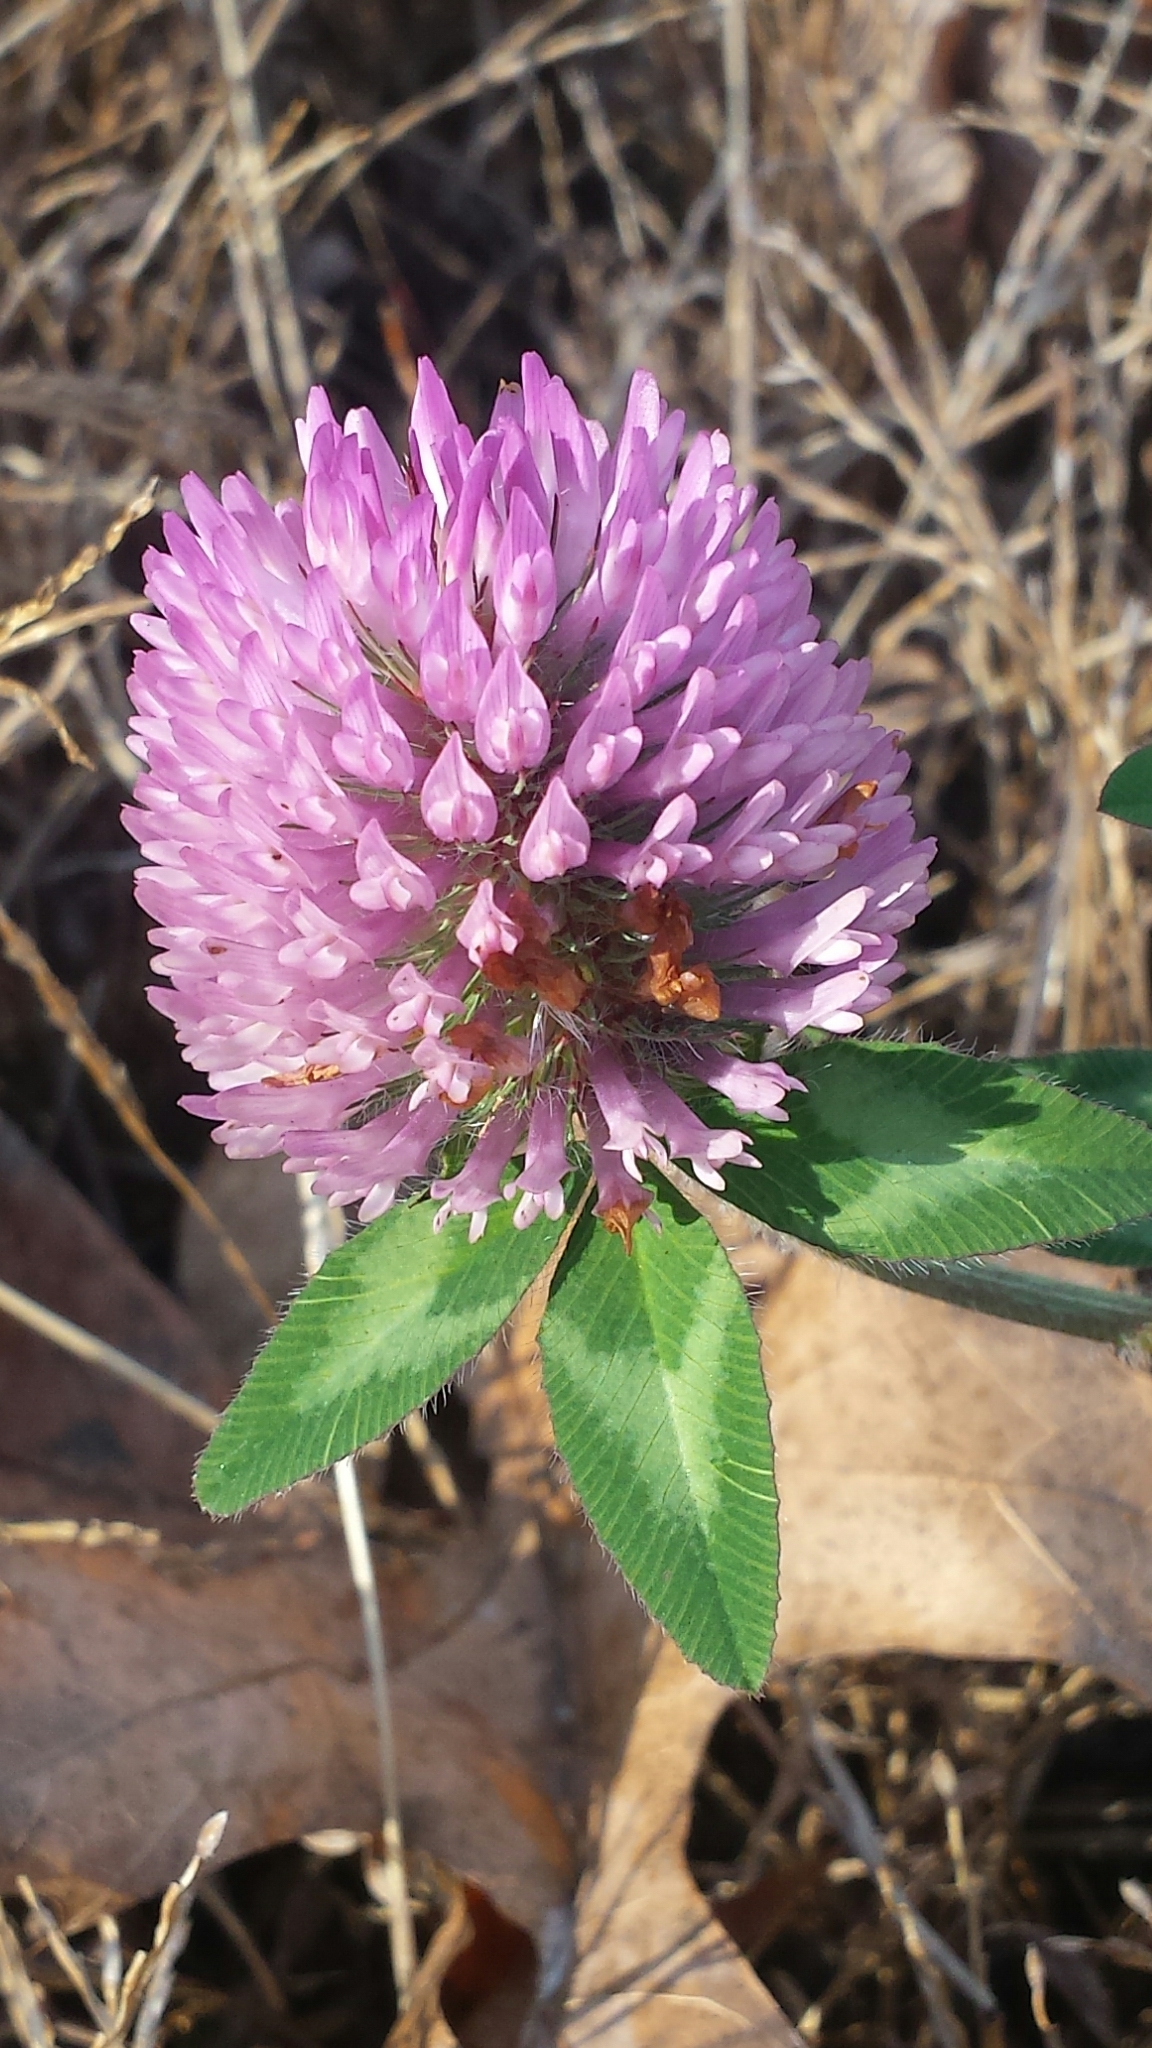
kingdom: Plantae
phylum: Tracheophyta
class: Magnoliopsida
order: Fabales
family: Fabaceae
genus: Trifolium
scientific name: Trifolium pratense
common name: Red clover
